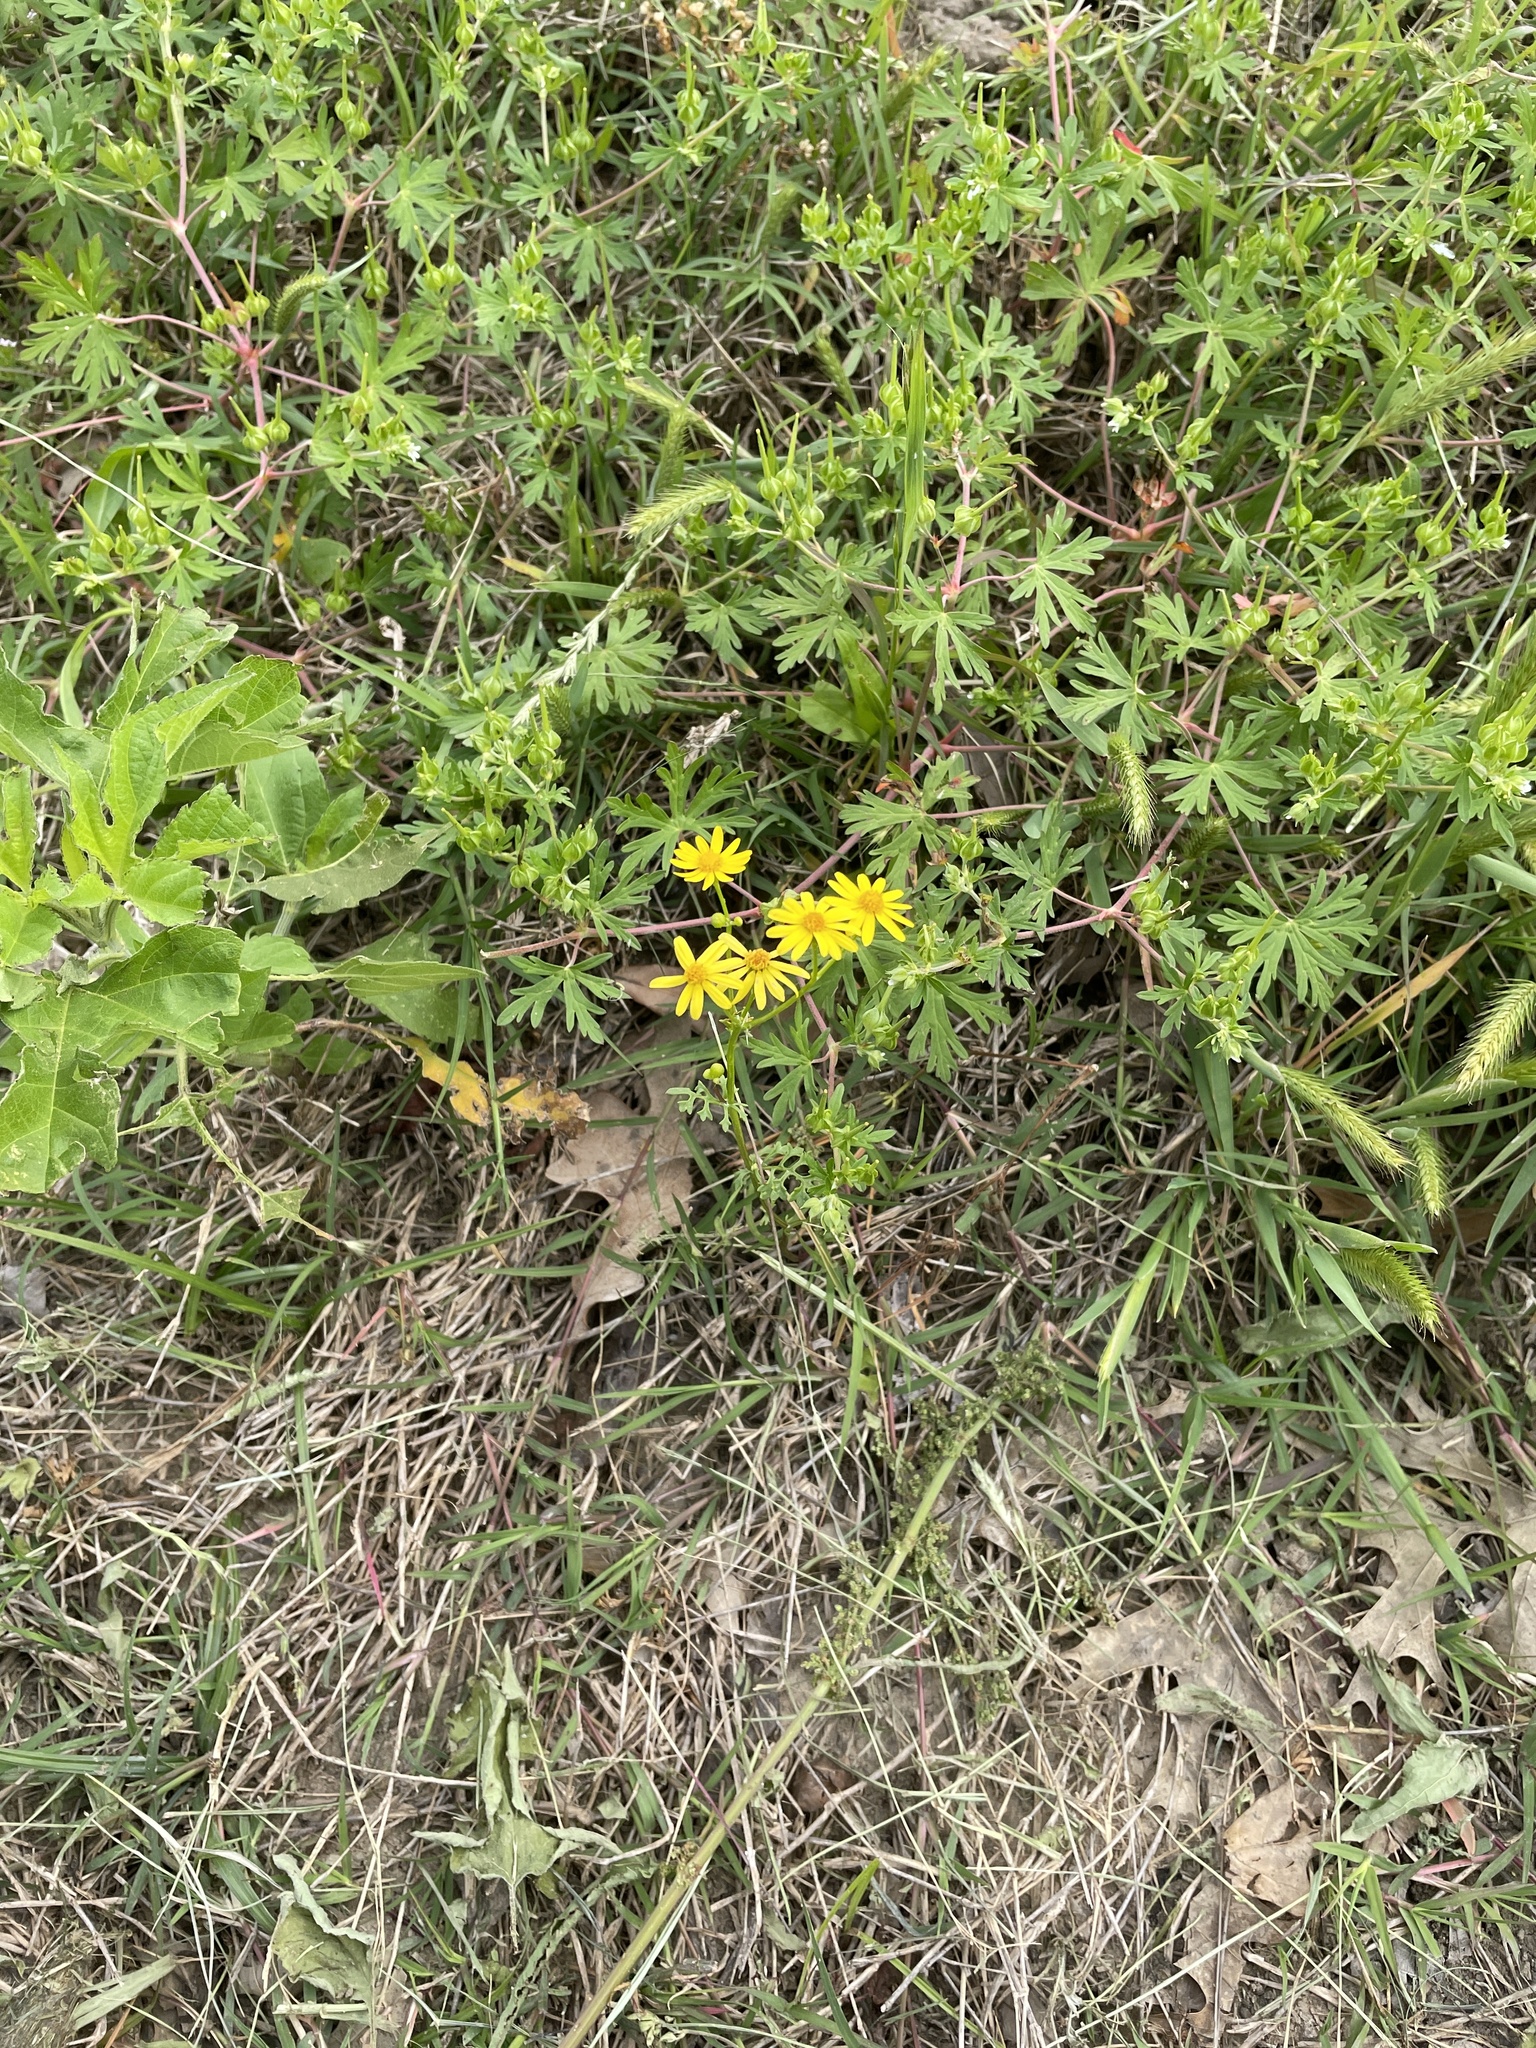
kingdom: Plantae
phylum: Tracheophyta
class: Magnoliopsida
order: Asterales
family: Asteraceae
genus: Packera
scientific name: Packera tampicana
